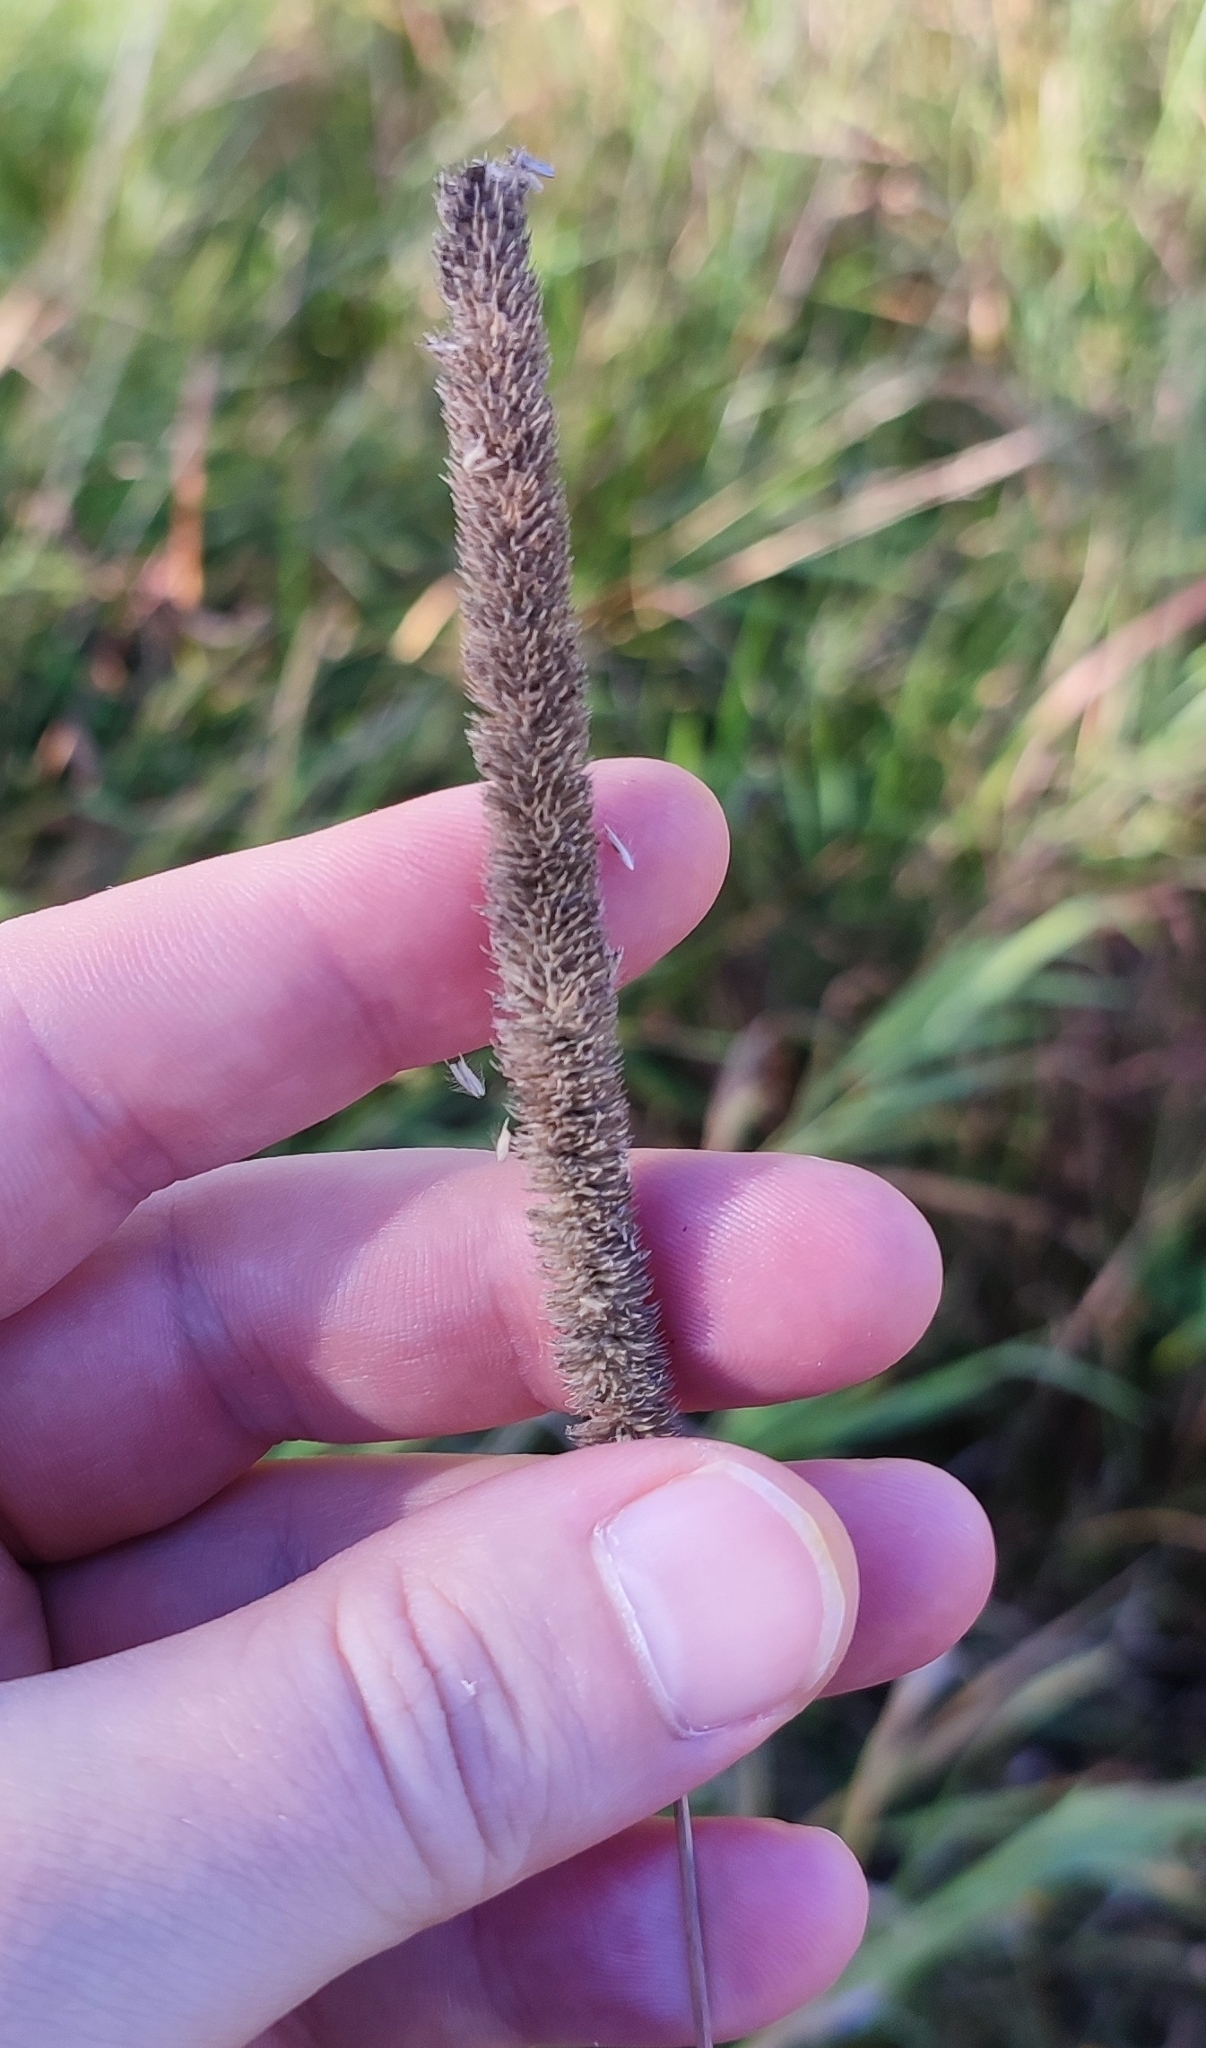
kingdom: Plantae
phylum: Tracheophyta
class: Liliopsida
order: Poales
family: Poaceae
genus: Phleum
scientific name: Phleum pratense
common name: Timothy grass
